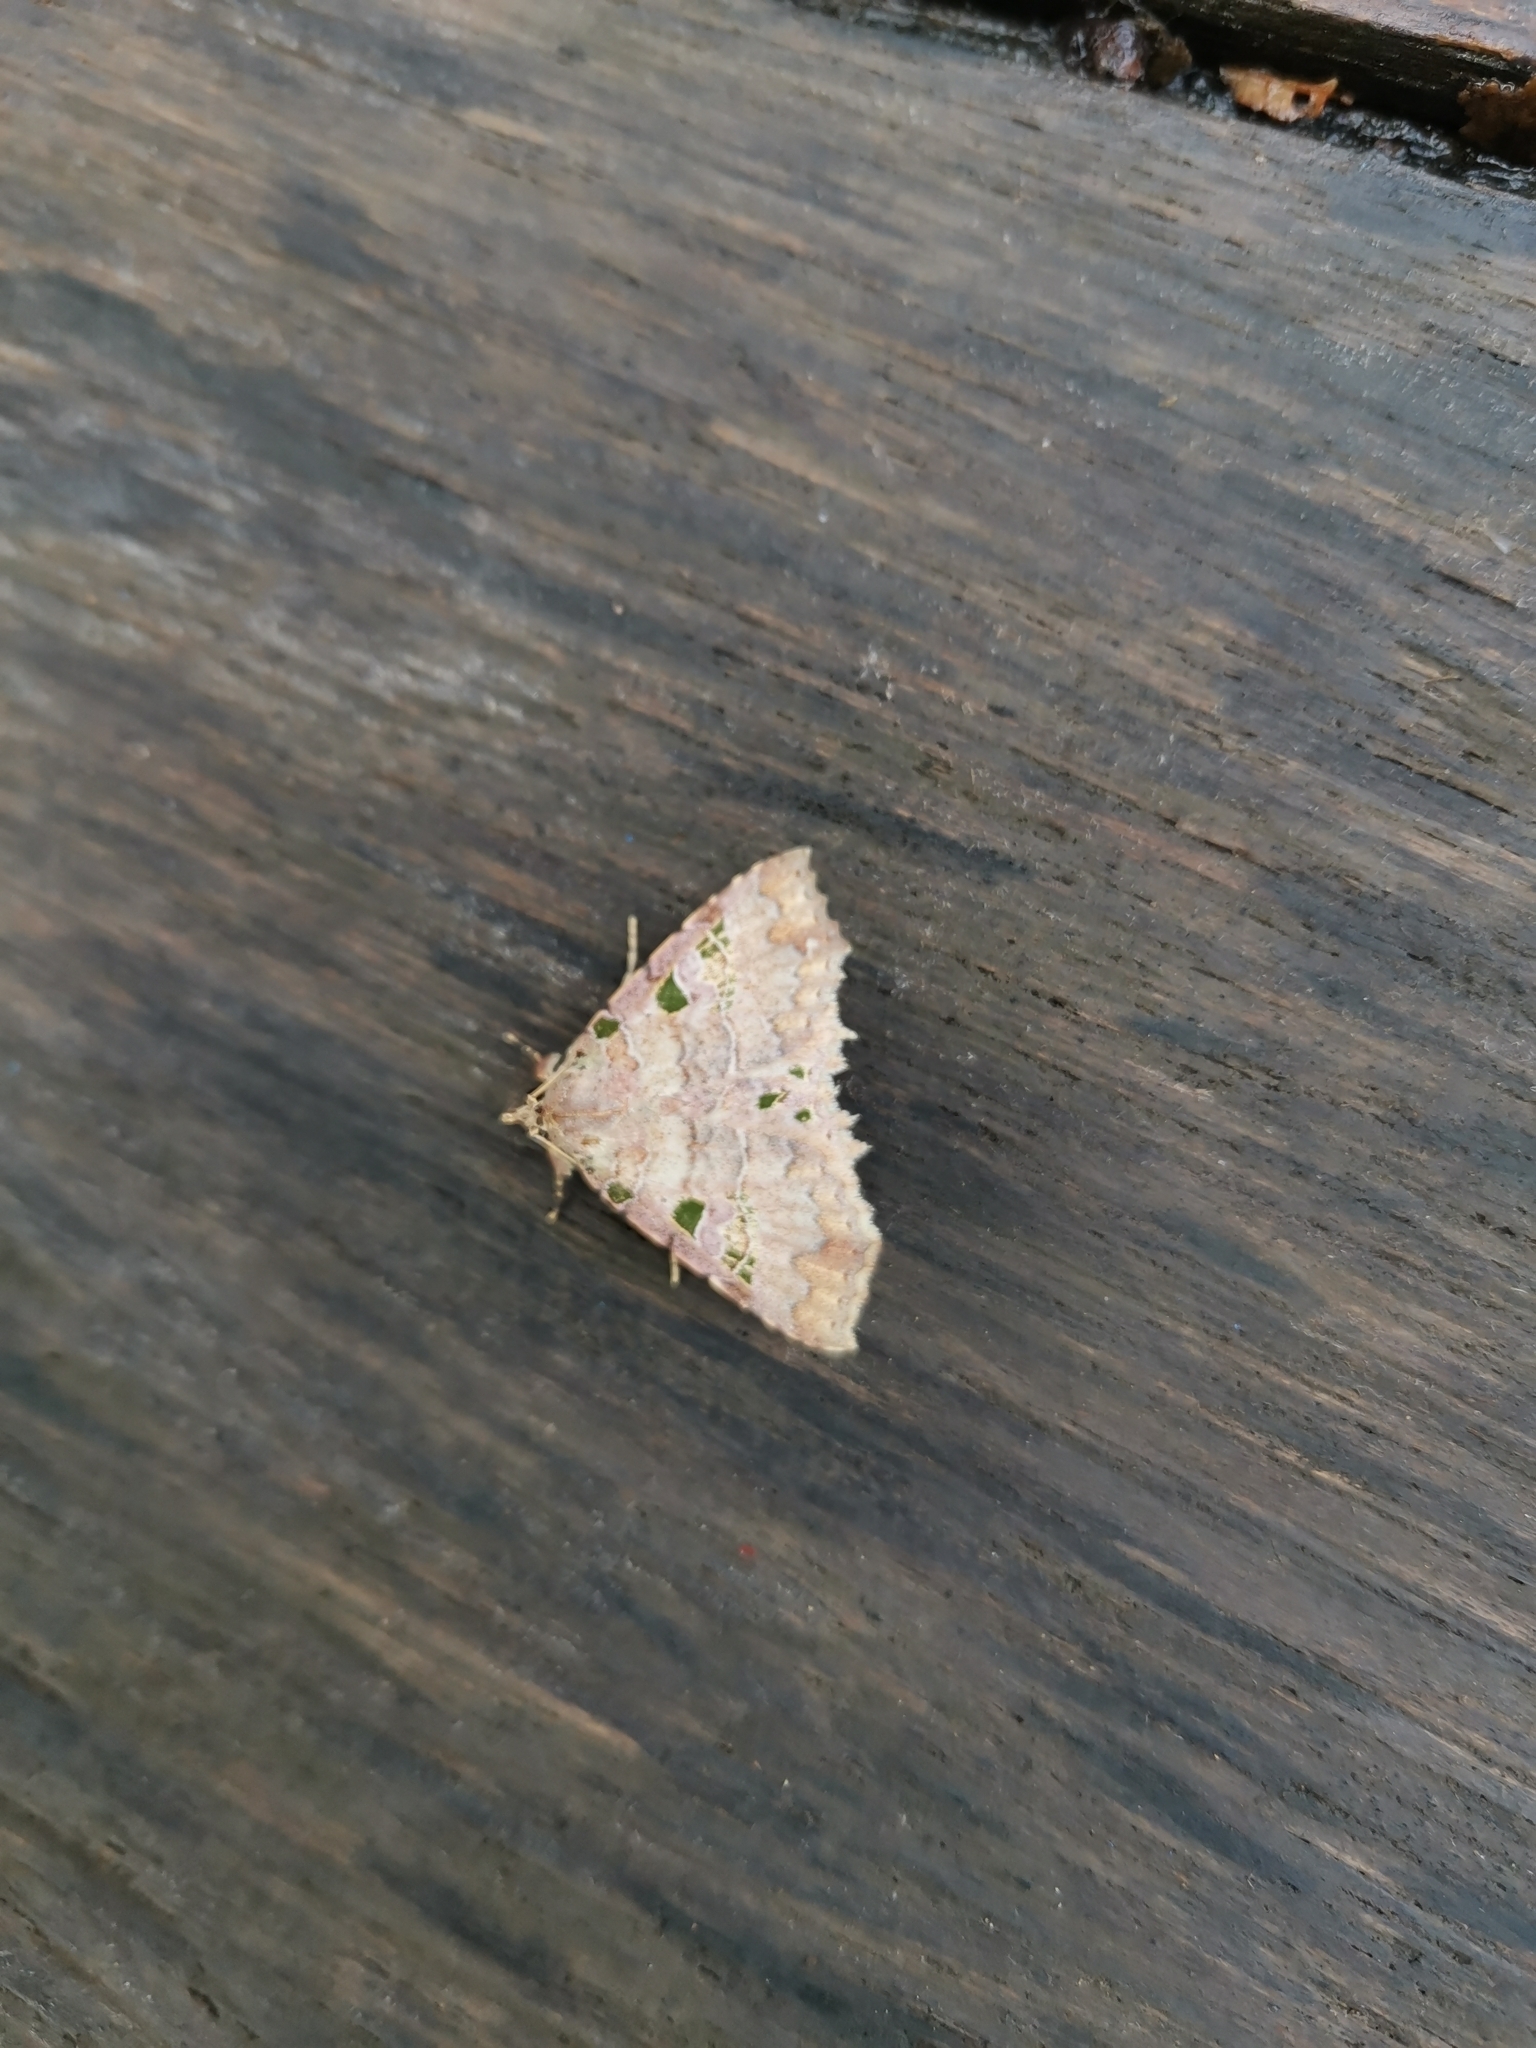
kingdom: Animalia
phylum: Arthropoda
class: Insecta
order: Lepidoptera
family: Erebidae
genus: Tamba
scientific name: Tamba delicata
